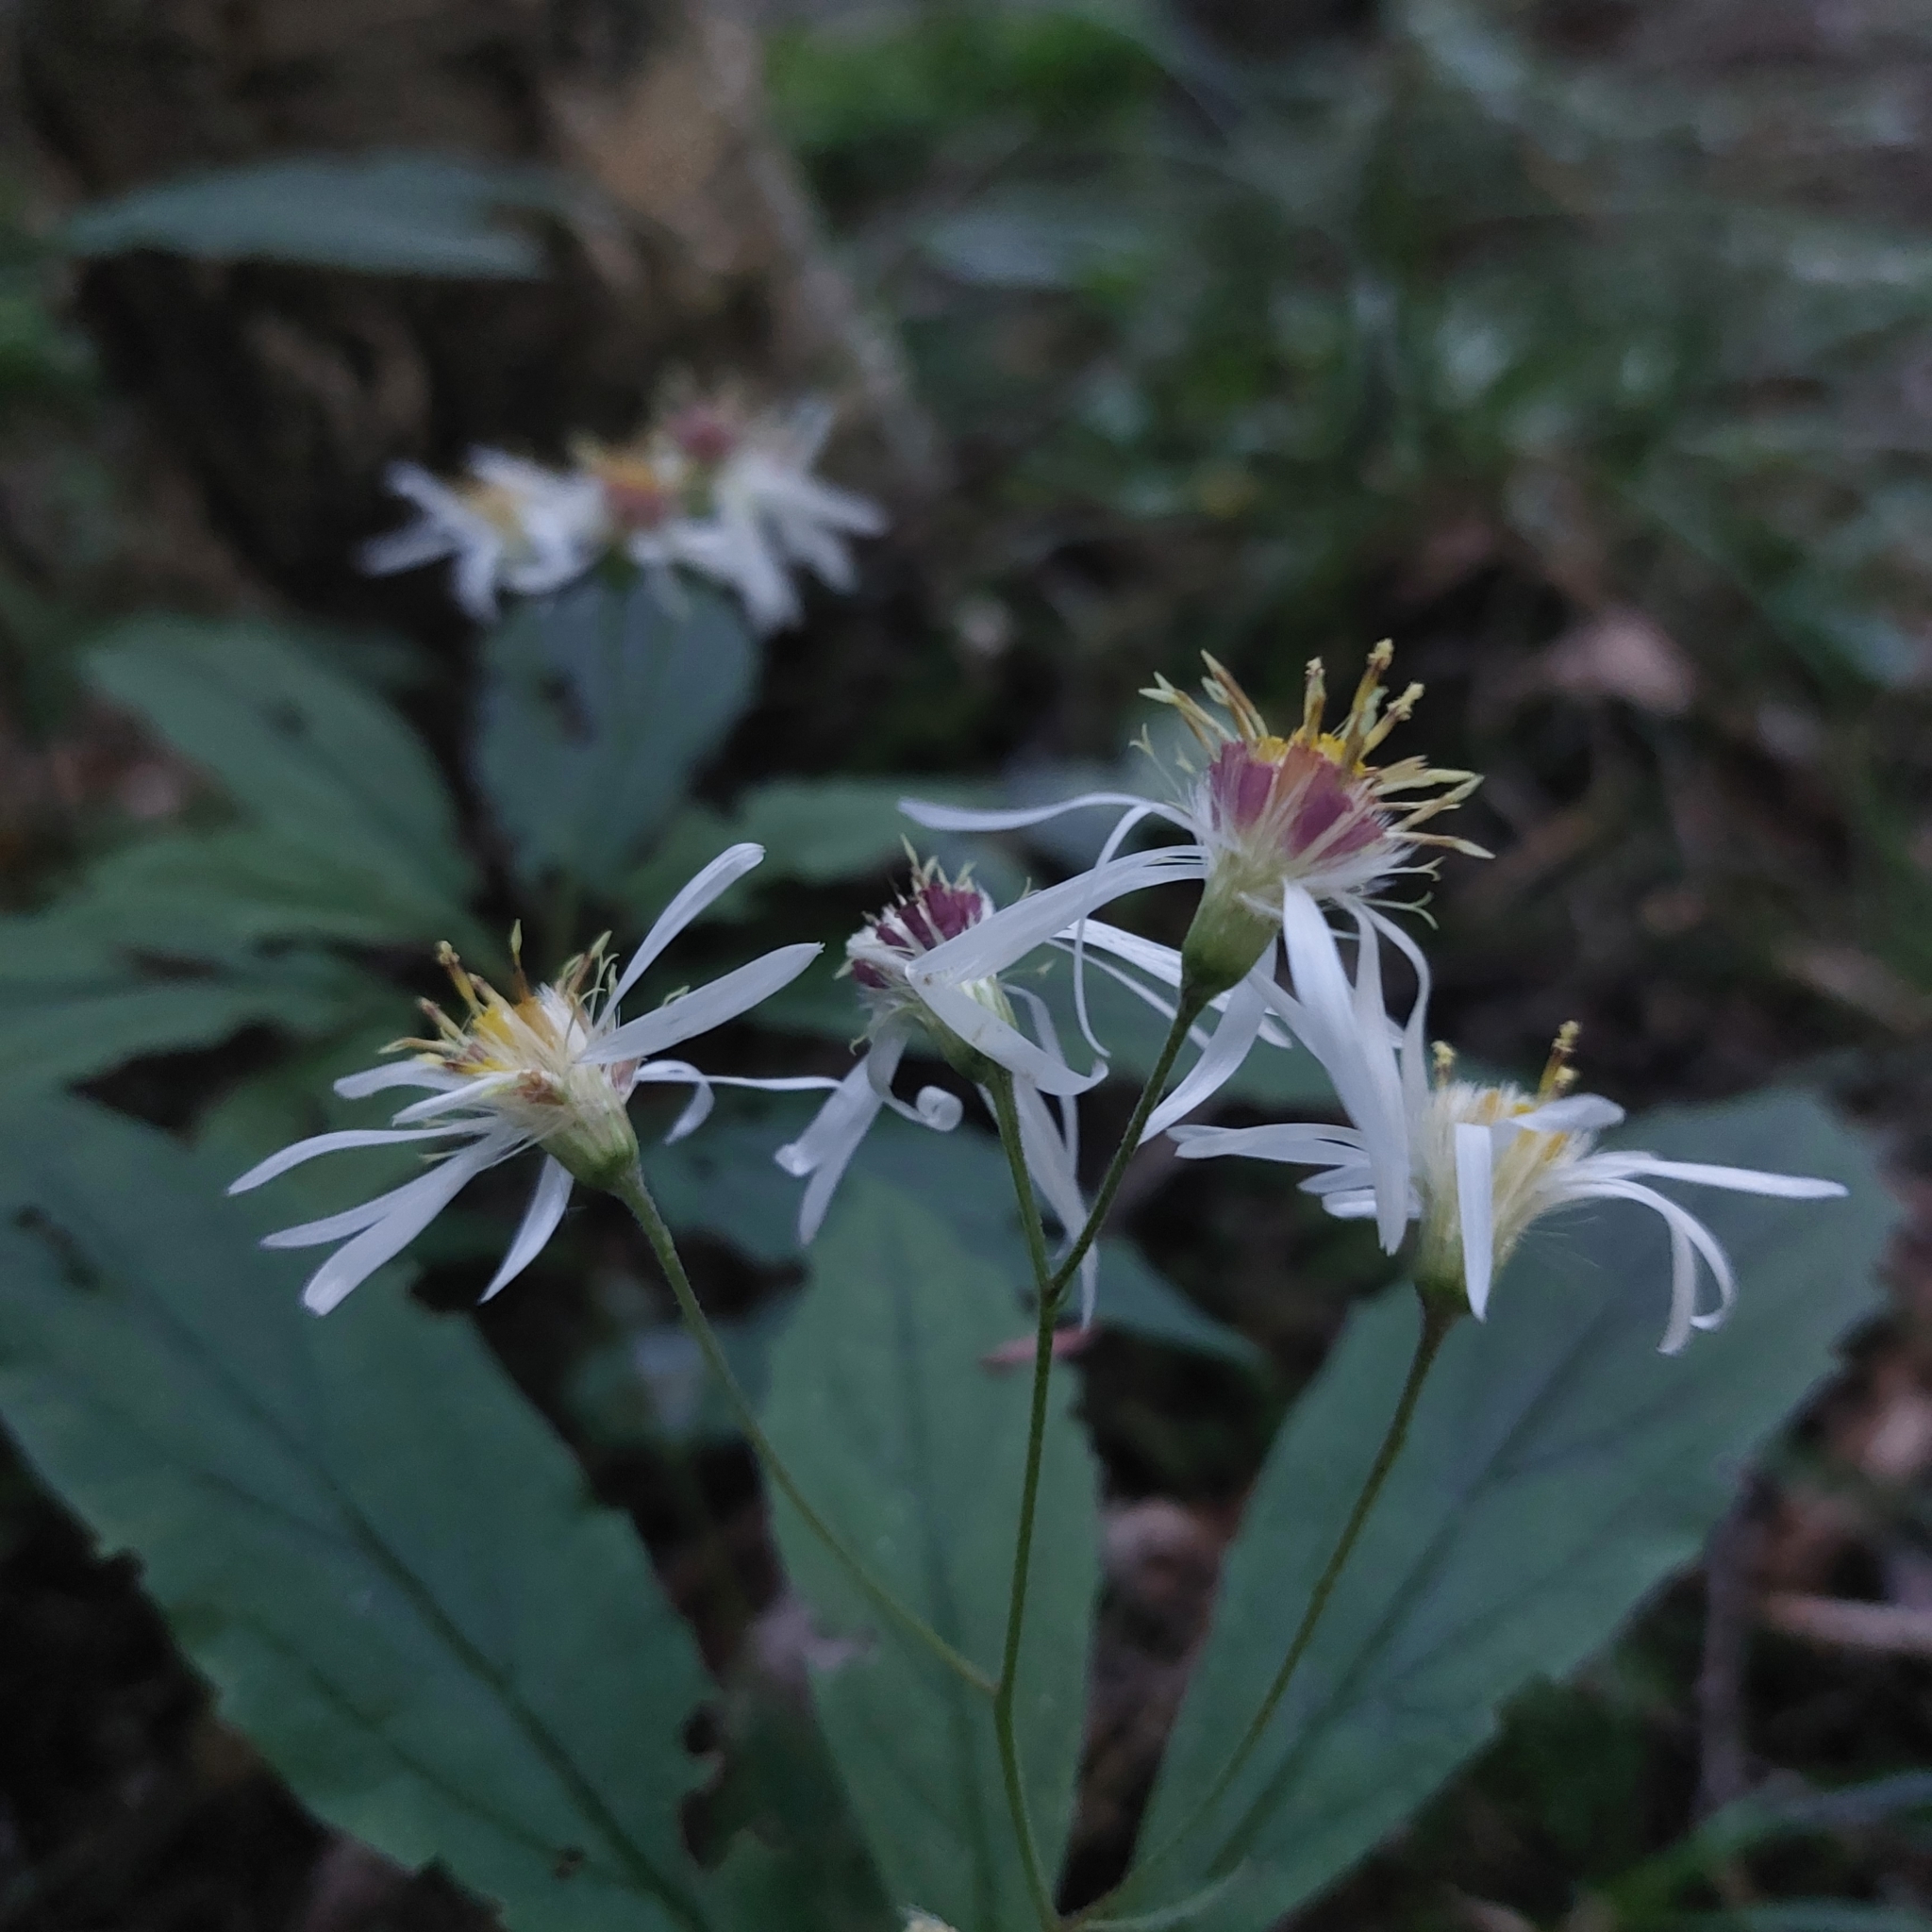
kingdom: Plantae
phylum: Tracheophyta
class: Magnoliopsida
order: Asterales
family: Asteraceae
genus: Oclemena
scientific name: Oclemena acuminata
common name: Mountain aster
